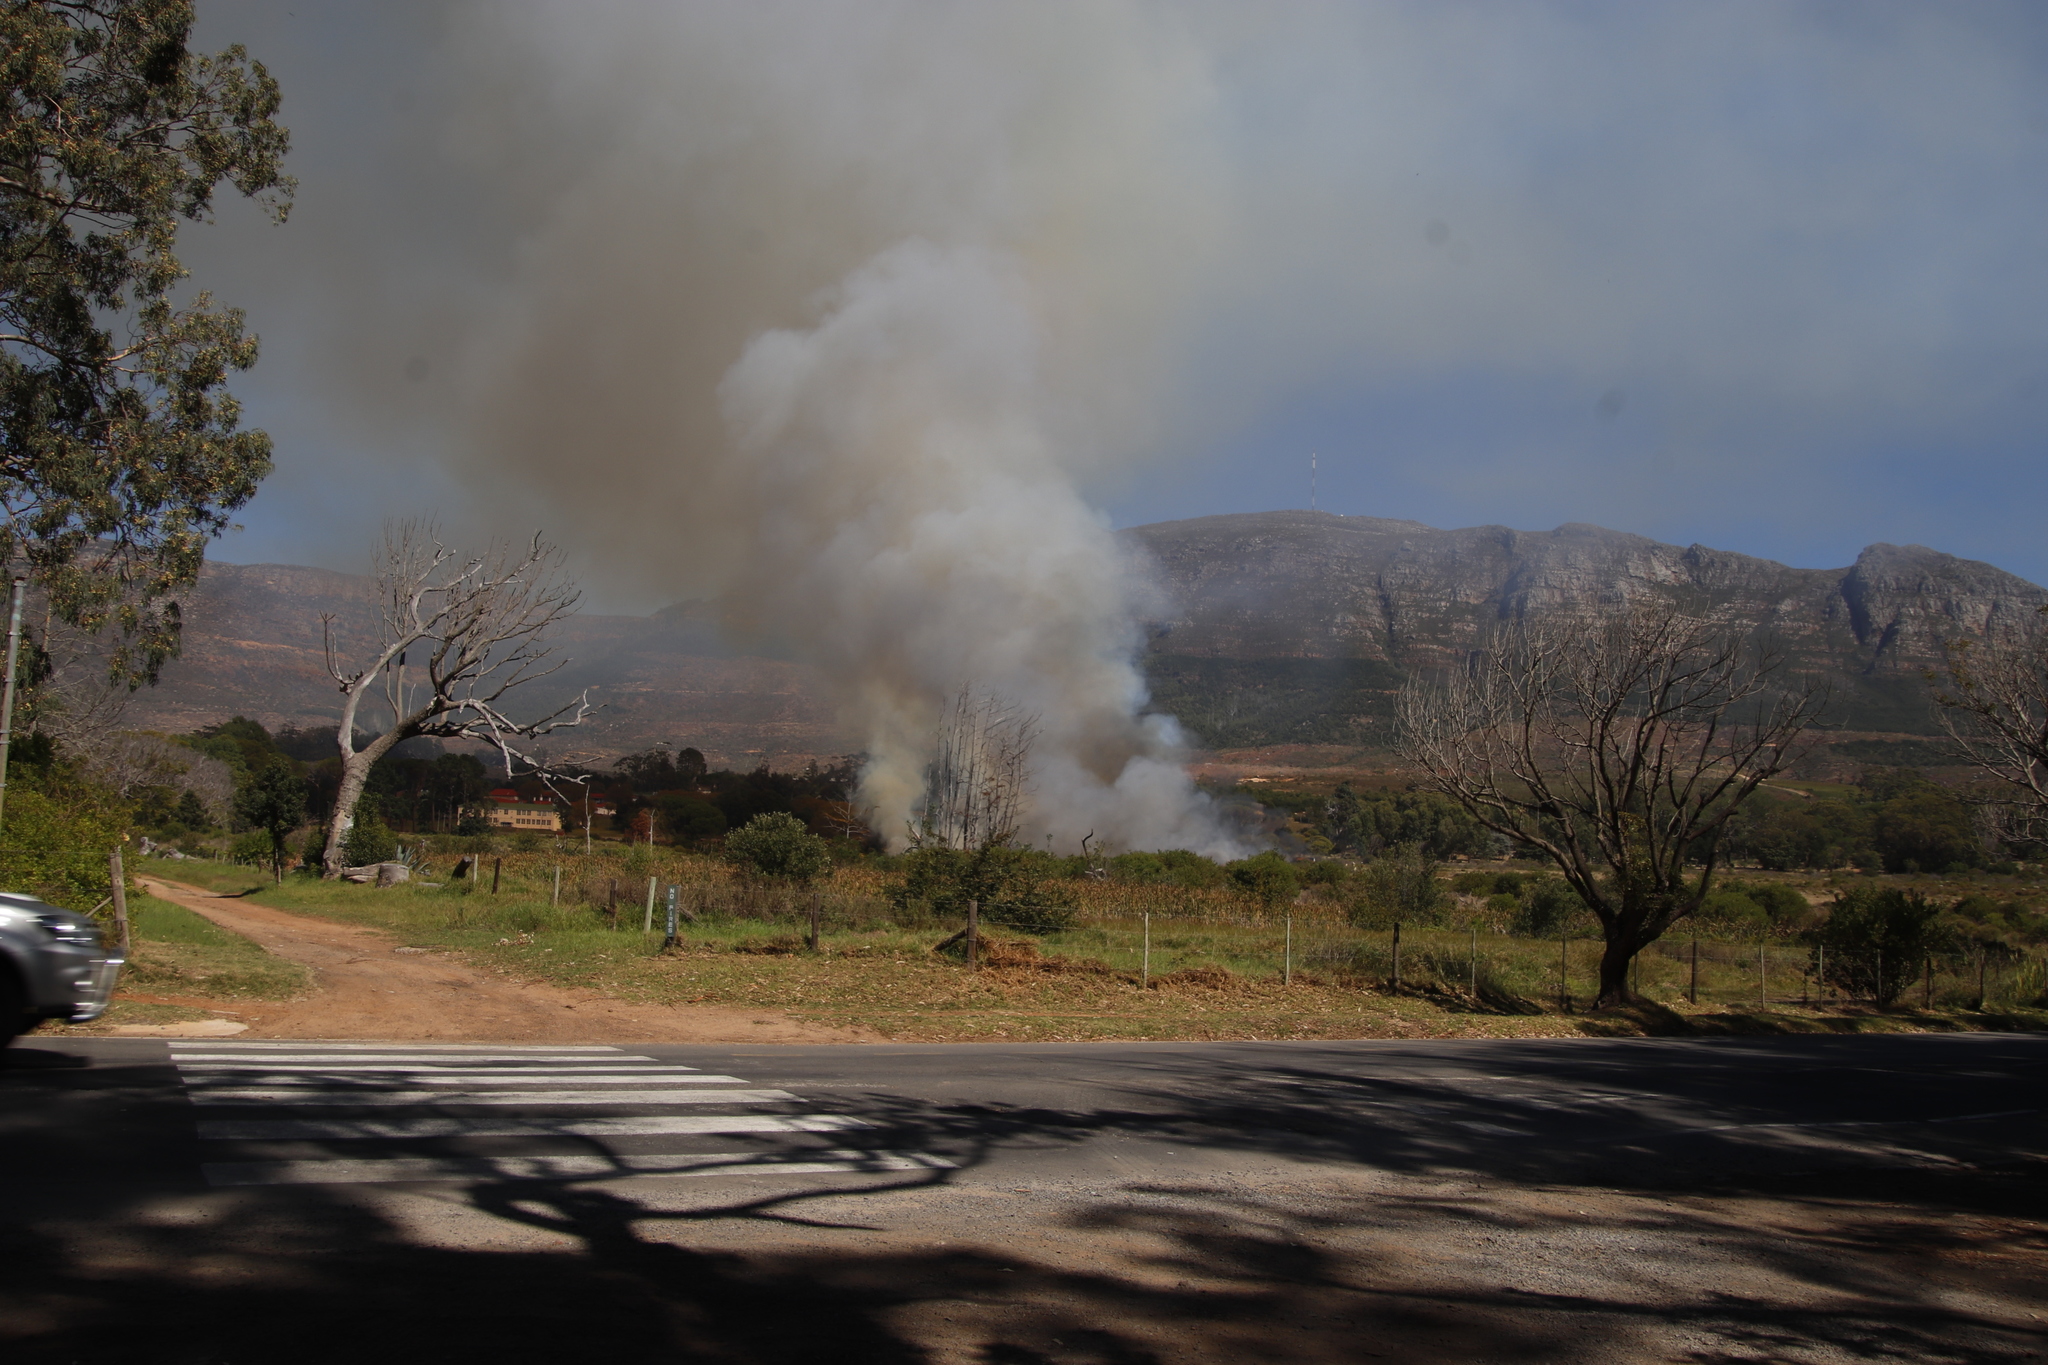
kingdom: Plantae
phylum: Tracheophyta
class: Magnoliopsida
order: Laurales
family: Lauraceae
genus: Cinnamomum
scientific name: Cinnamomum camphora
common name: Camphortree
